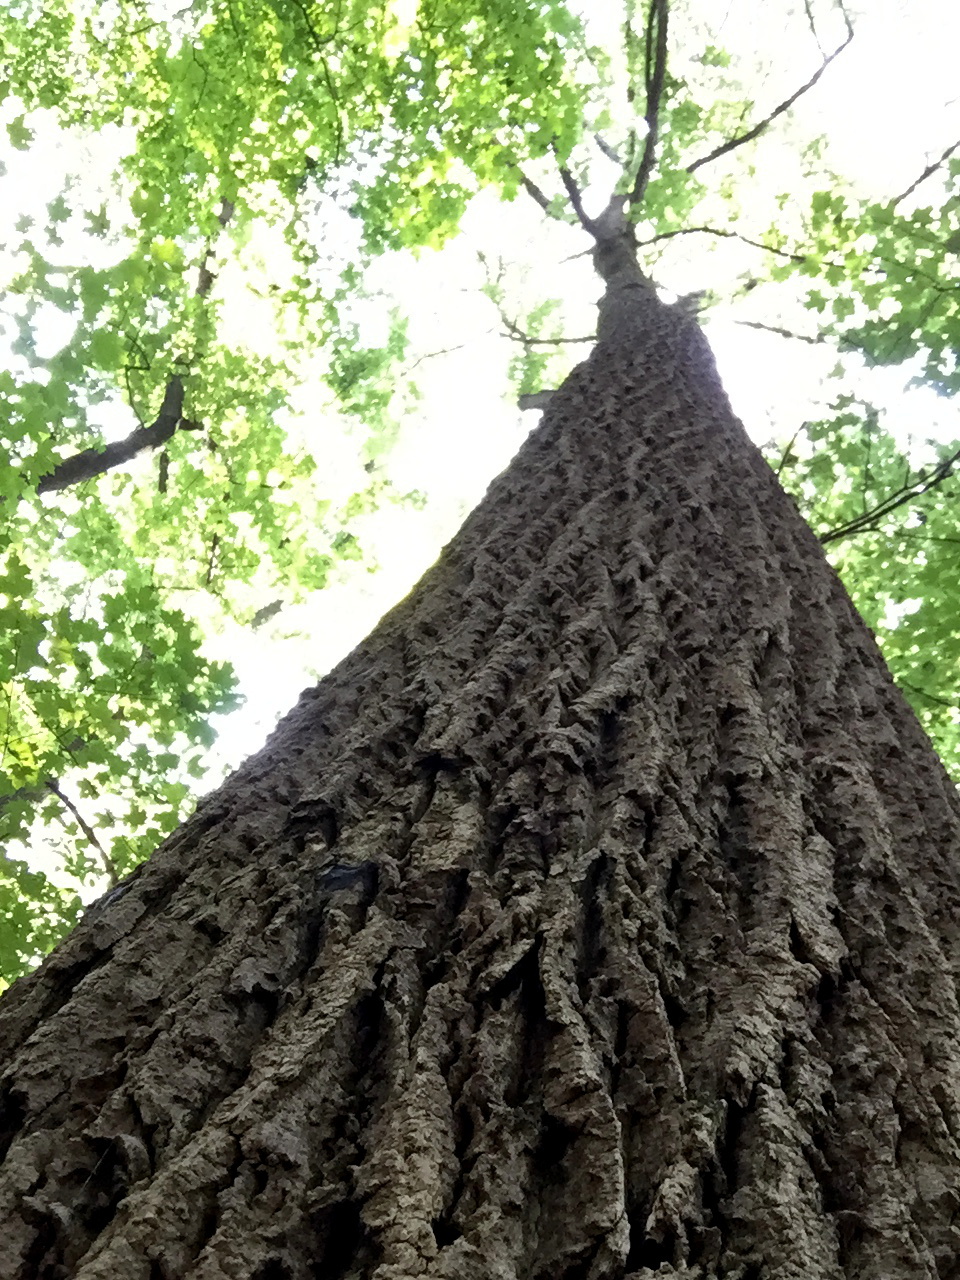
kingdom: Plantae
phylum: Tracheophyta
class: Magnoliopsida
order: Magnoliales
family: Magnoliaceae
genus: Liriodendron
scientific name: Liriodendron tulipifera
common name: Tulip tree
